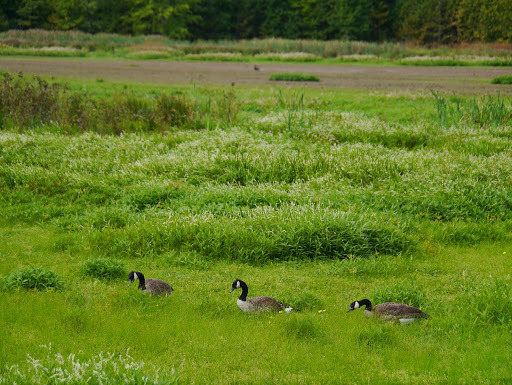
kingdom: Animalia
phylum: Chordata
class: Aves
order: Anseriformes
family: Anatidae
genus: Branta
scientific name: Branta canadensis
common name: Canada goose
